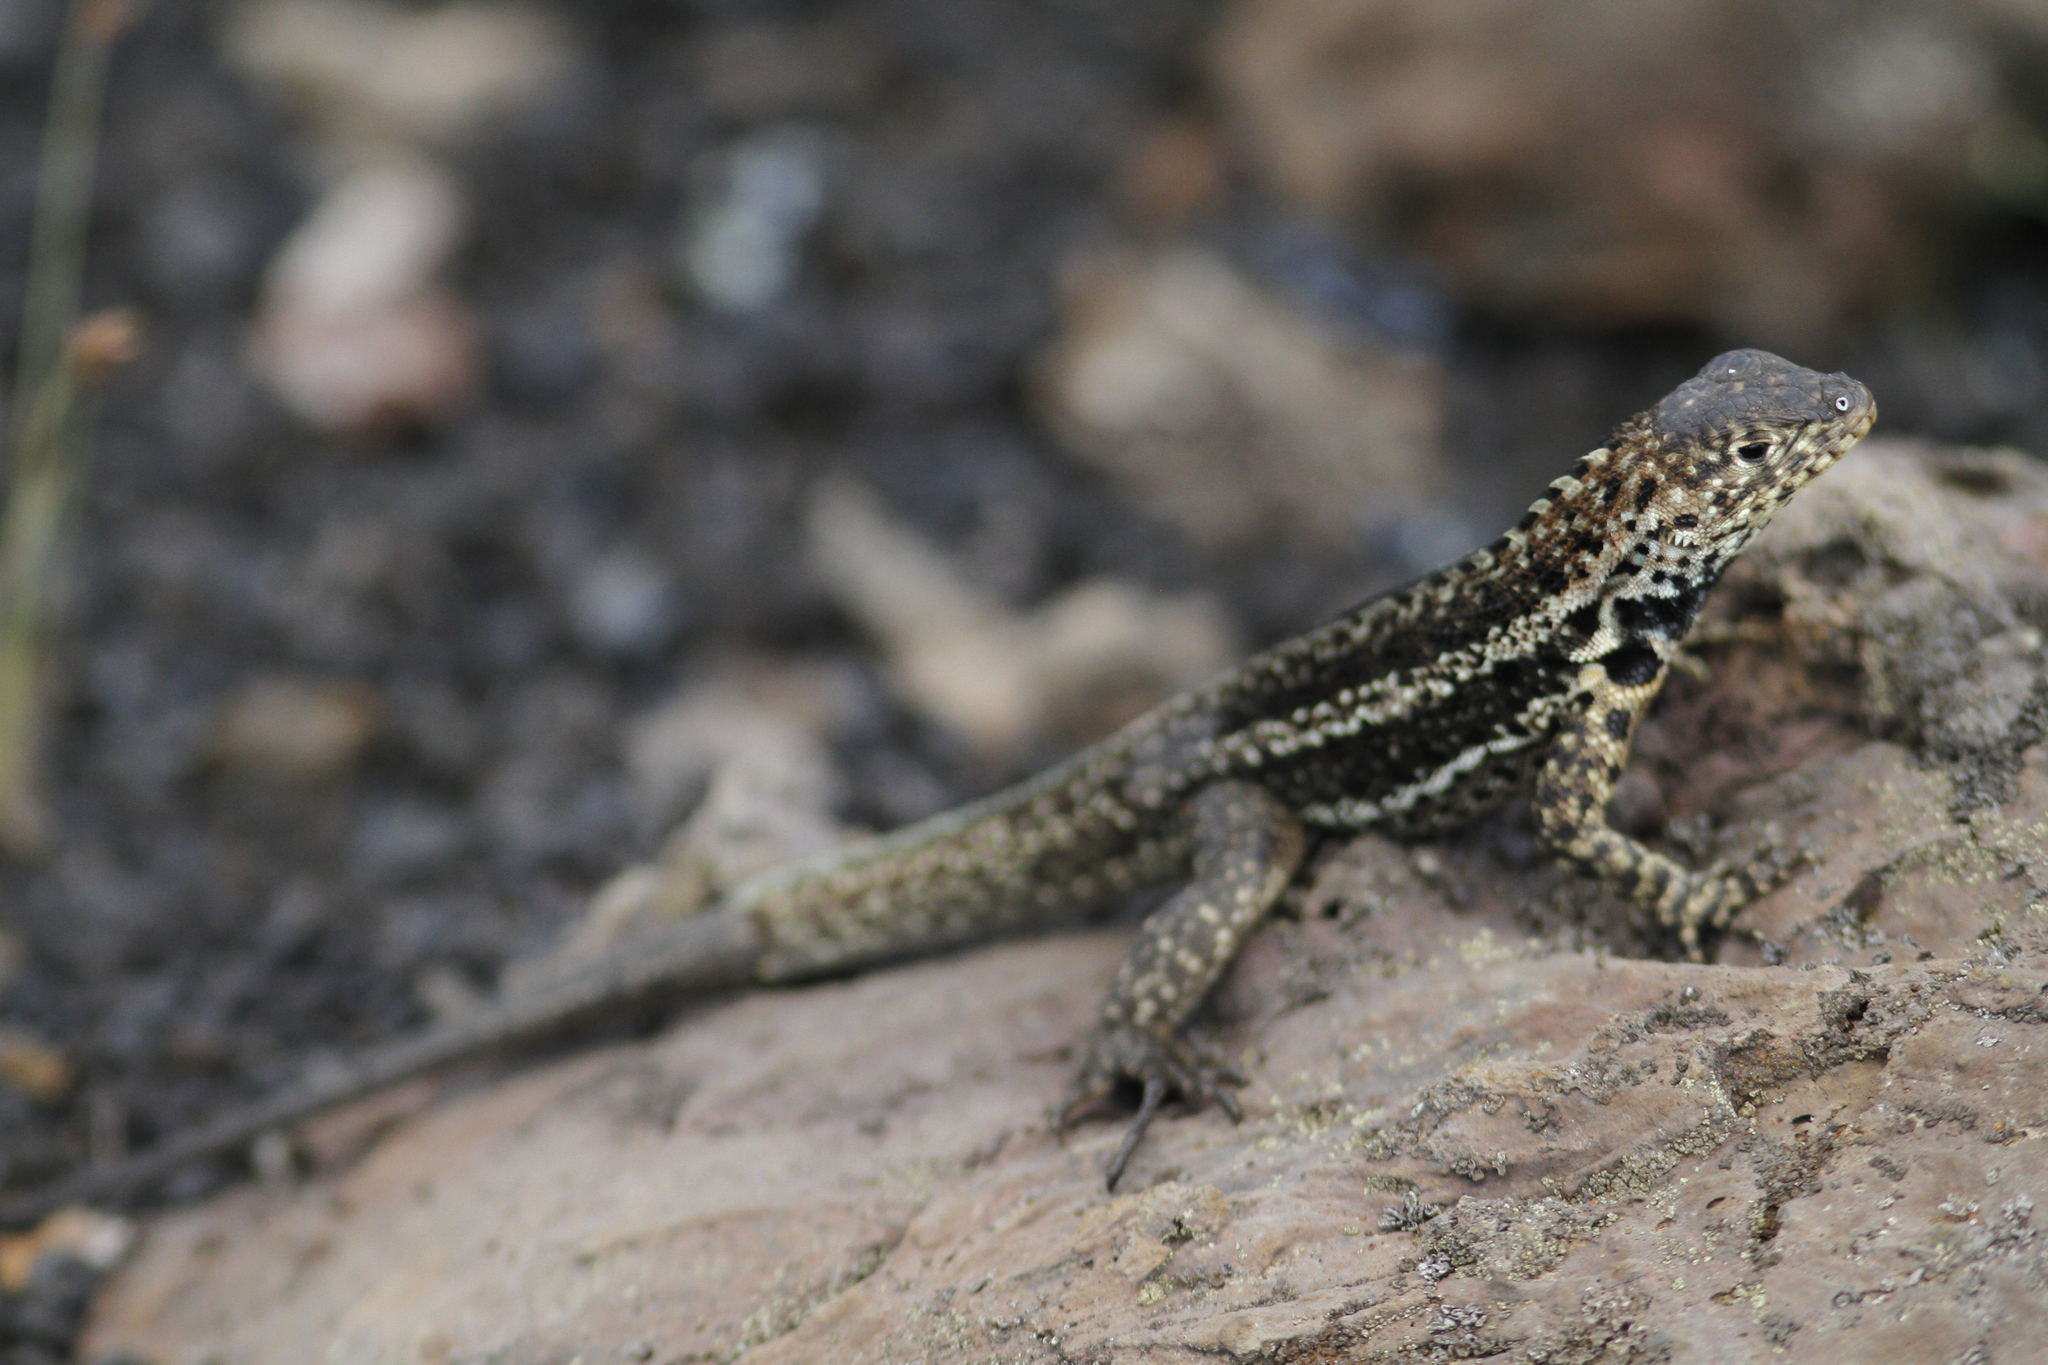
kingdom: Animalia
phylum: Chordata
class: Squamata
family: Tropiduridae
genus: Microlophus
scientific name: Microlophus albemarlensis
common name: Galapagos lava lizard
